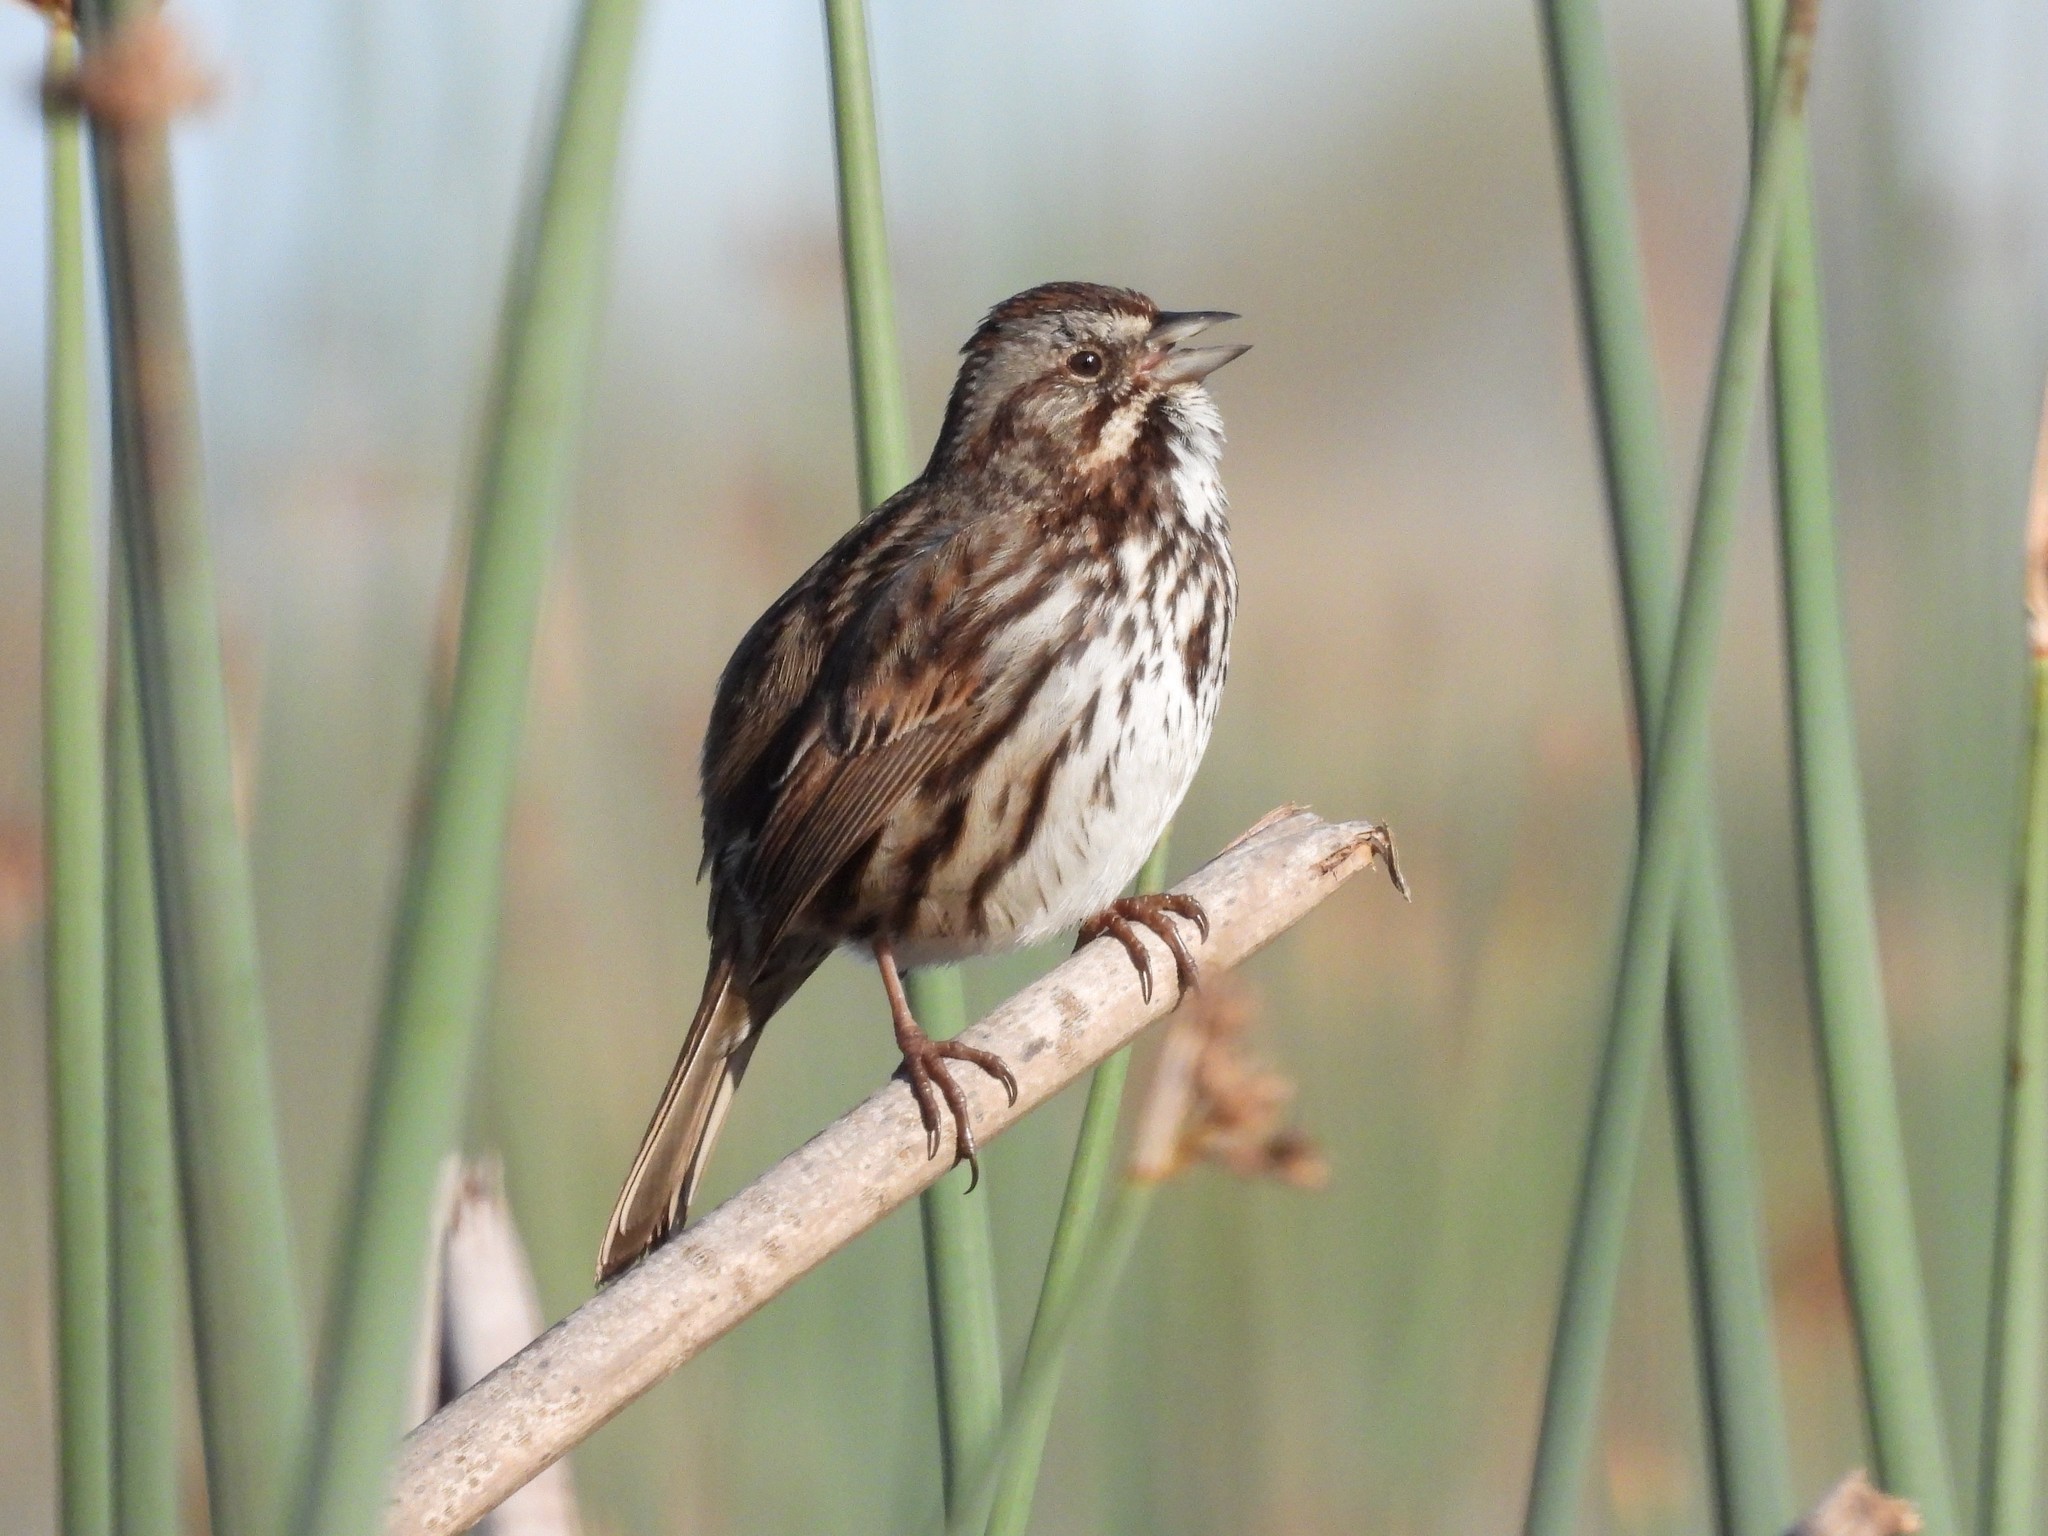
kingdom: Animalia
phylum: Chordata
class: Aves
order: Passeriformes
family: Passerellidae
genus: Melospiza
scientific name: Melospiza melodia
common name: Song sparrow
